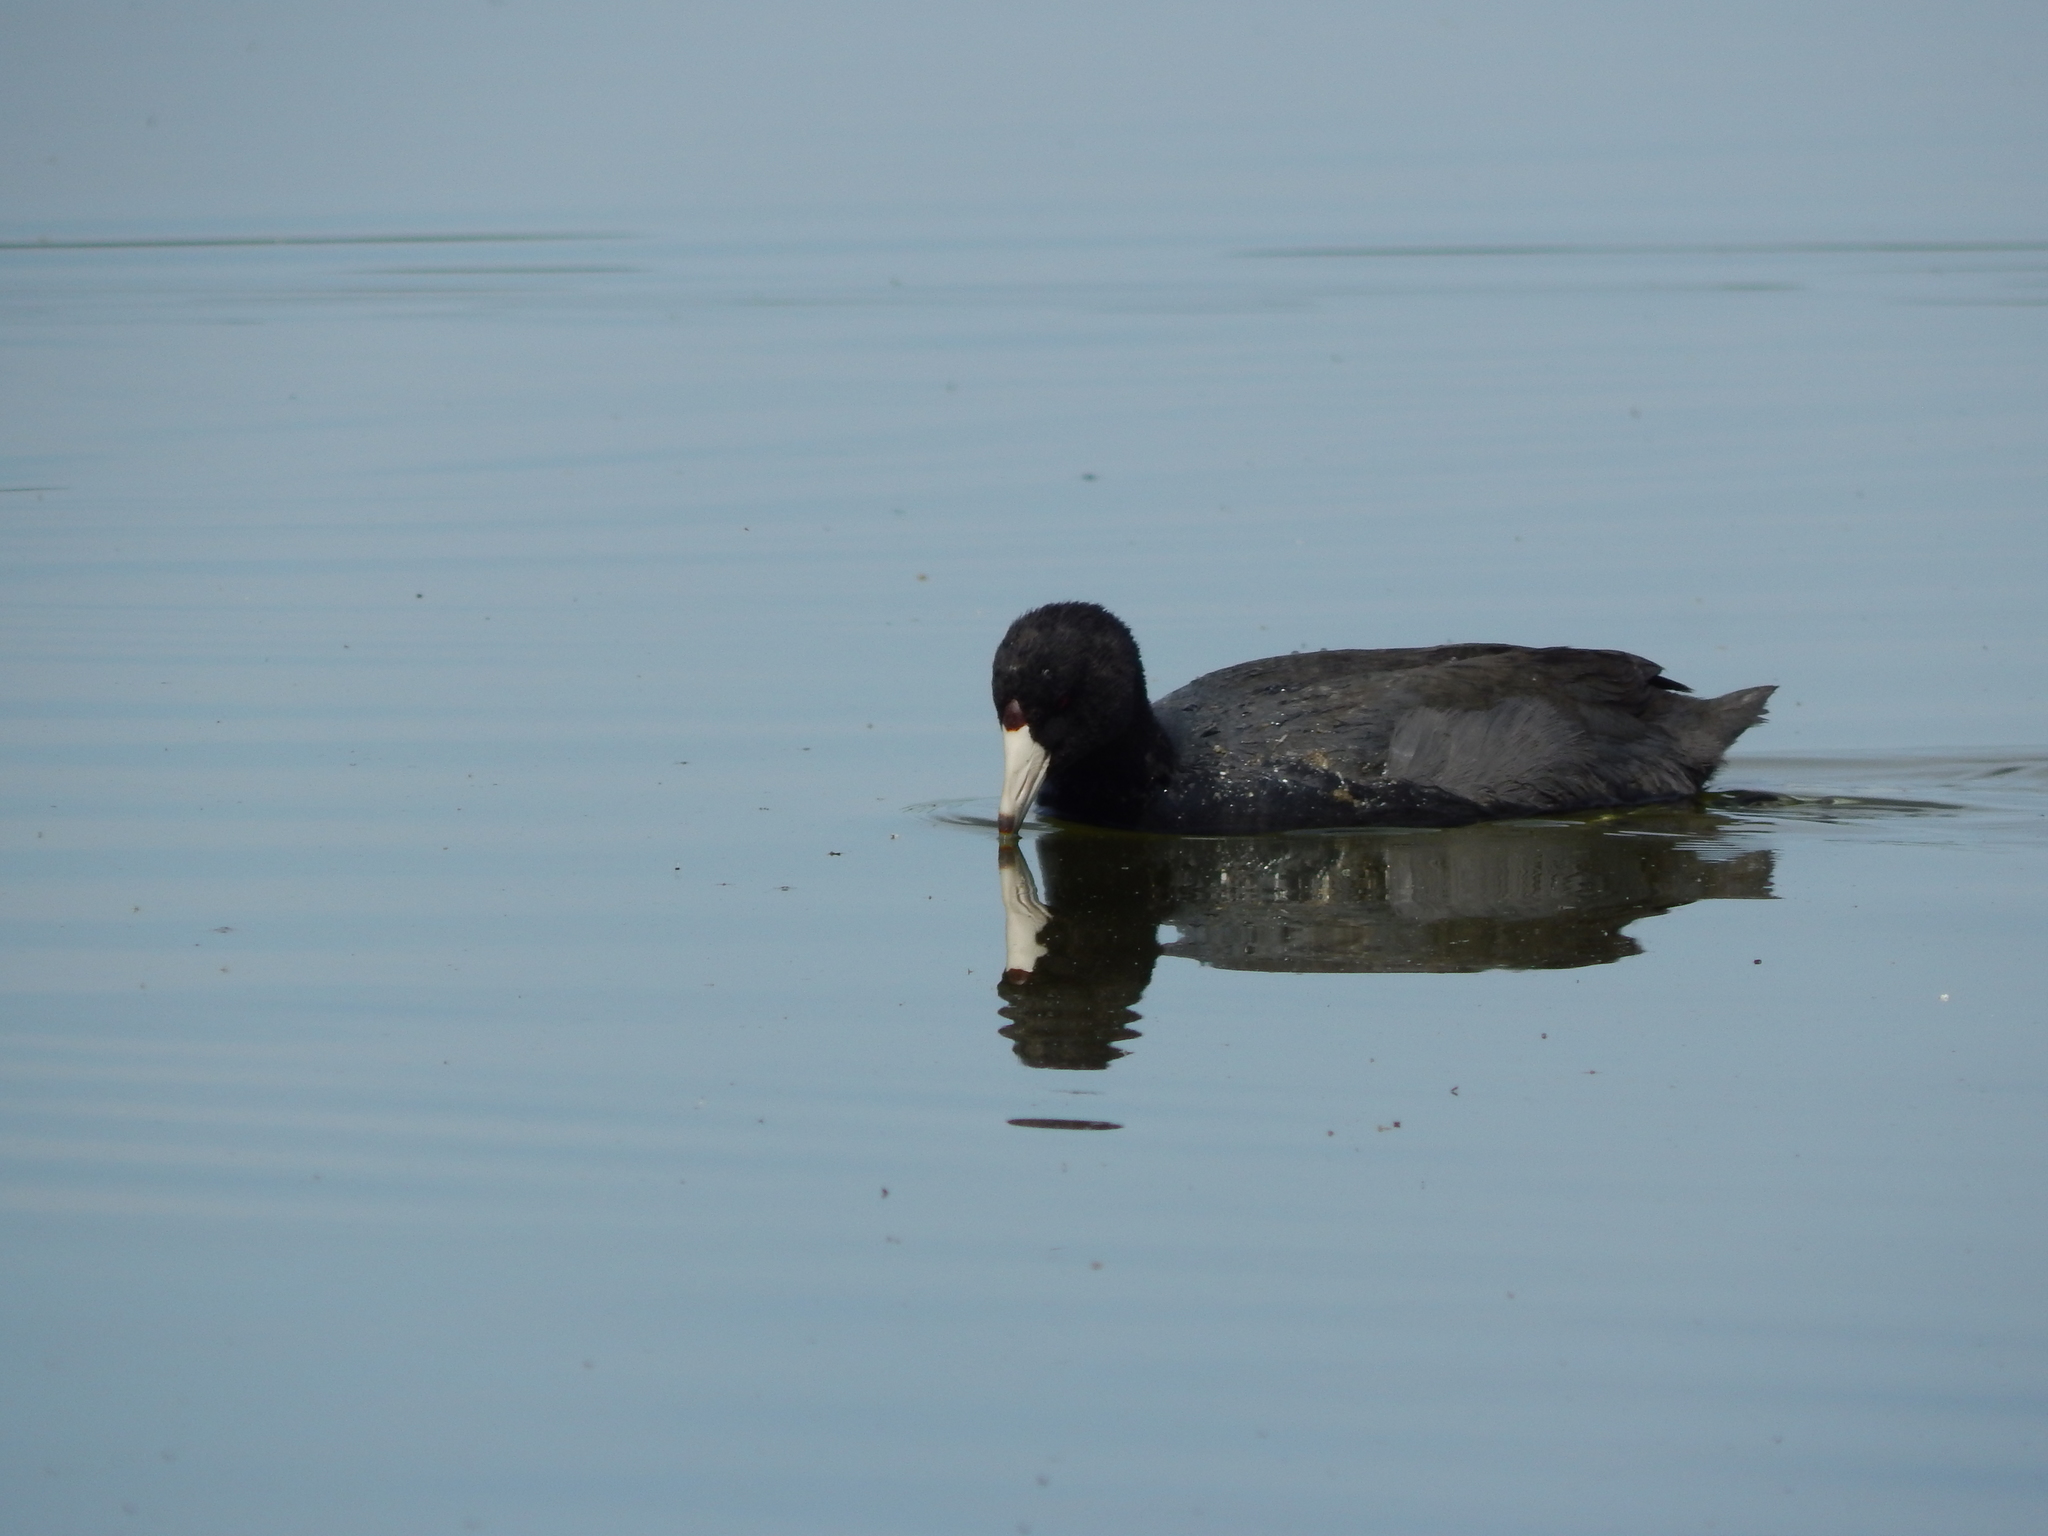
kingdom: Animalia
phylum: Chordata
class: Aves
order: Gruiformes
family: Rallidae
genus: Fulica
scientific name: Fulica americana
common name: American coot
